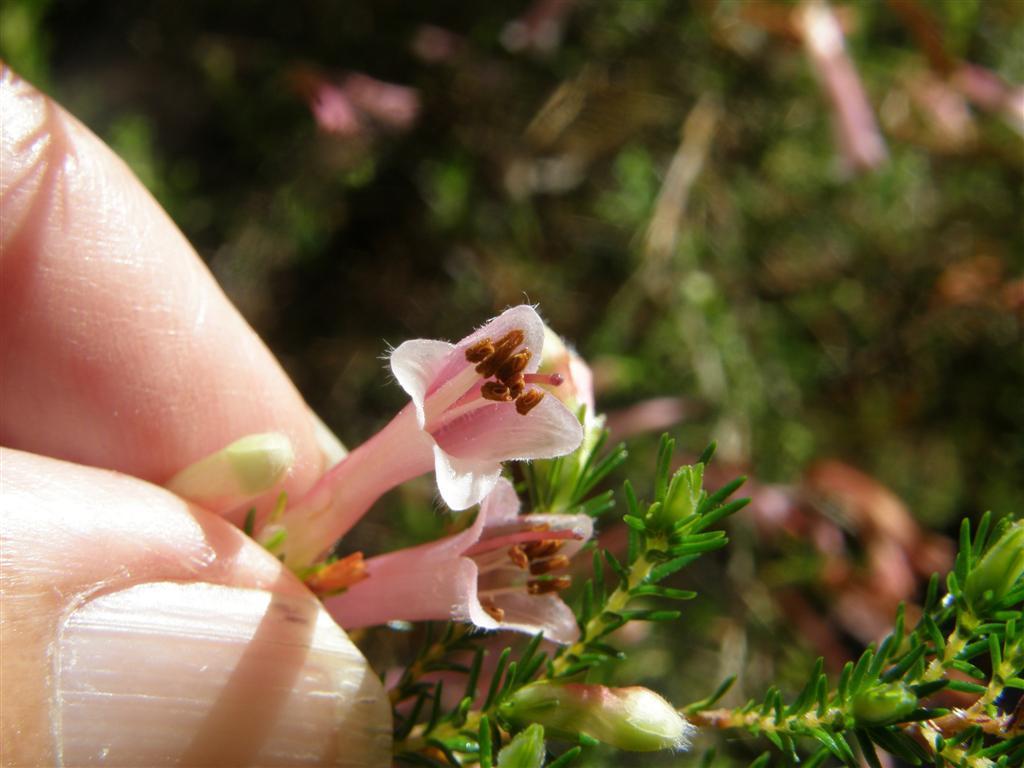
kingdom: Plantae
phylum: Tracheophyta
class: Magnoliopsida
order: Ericales
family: Ericaceae
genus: Erica
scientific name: Erica curviflora
